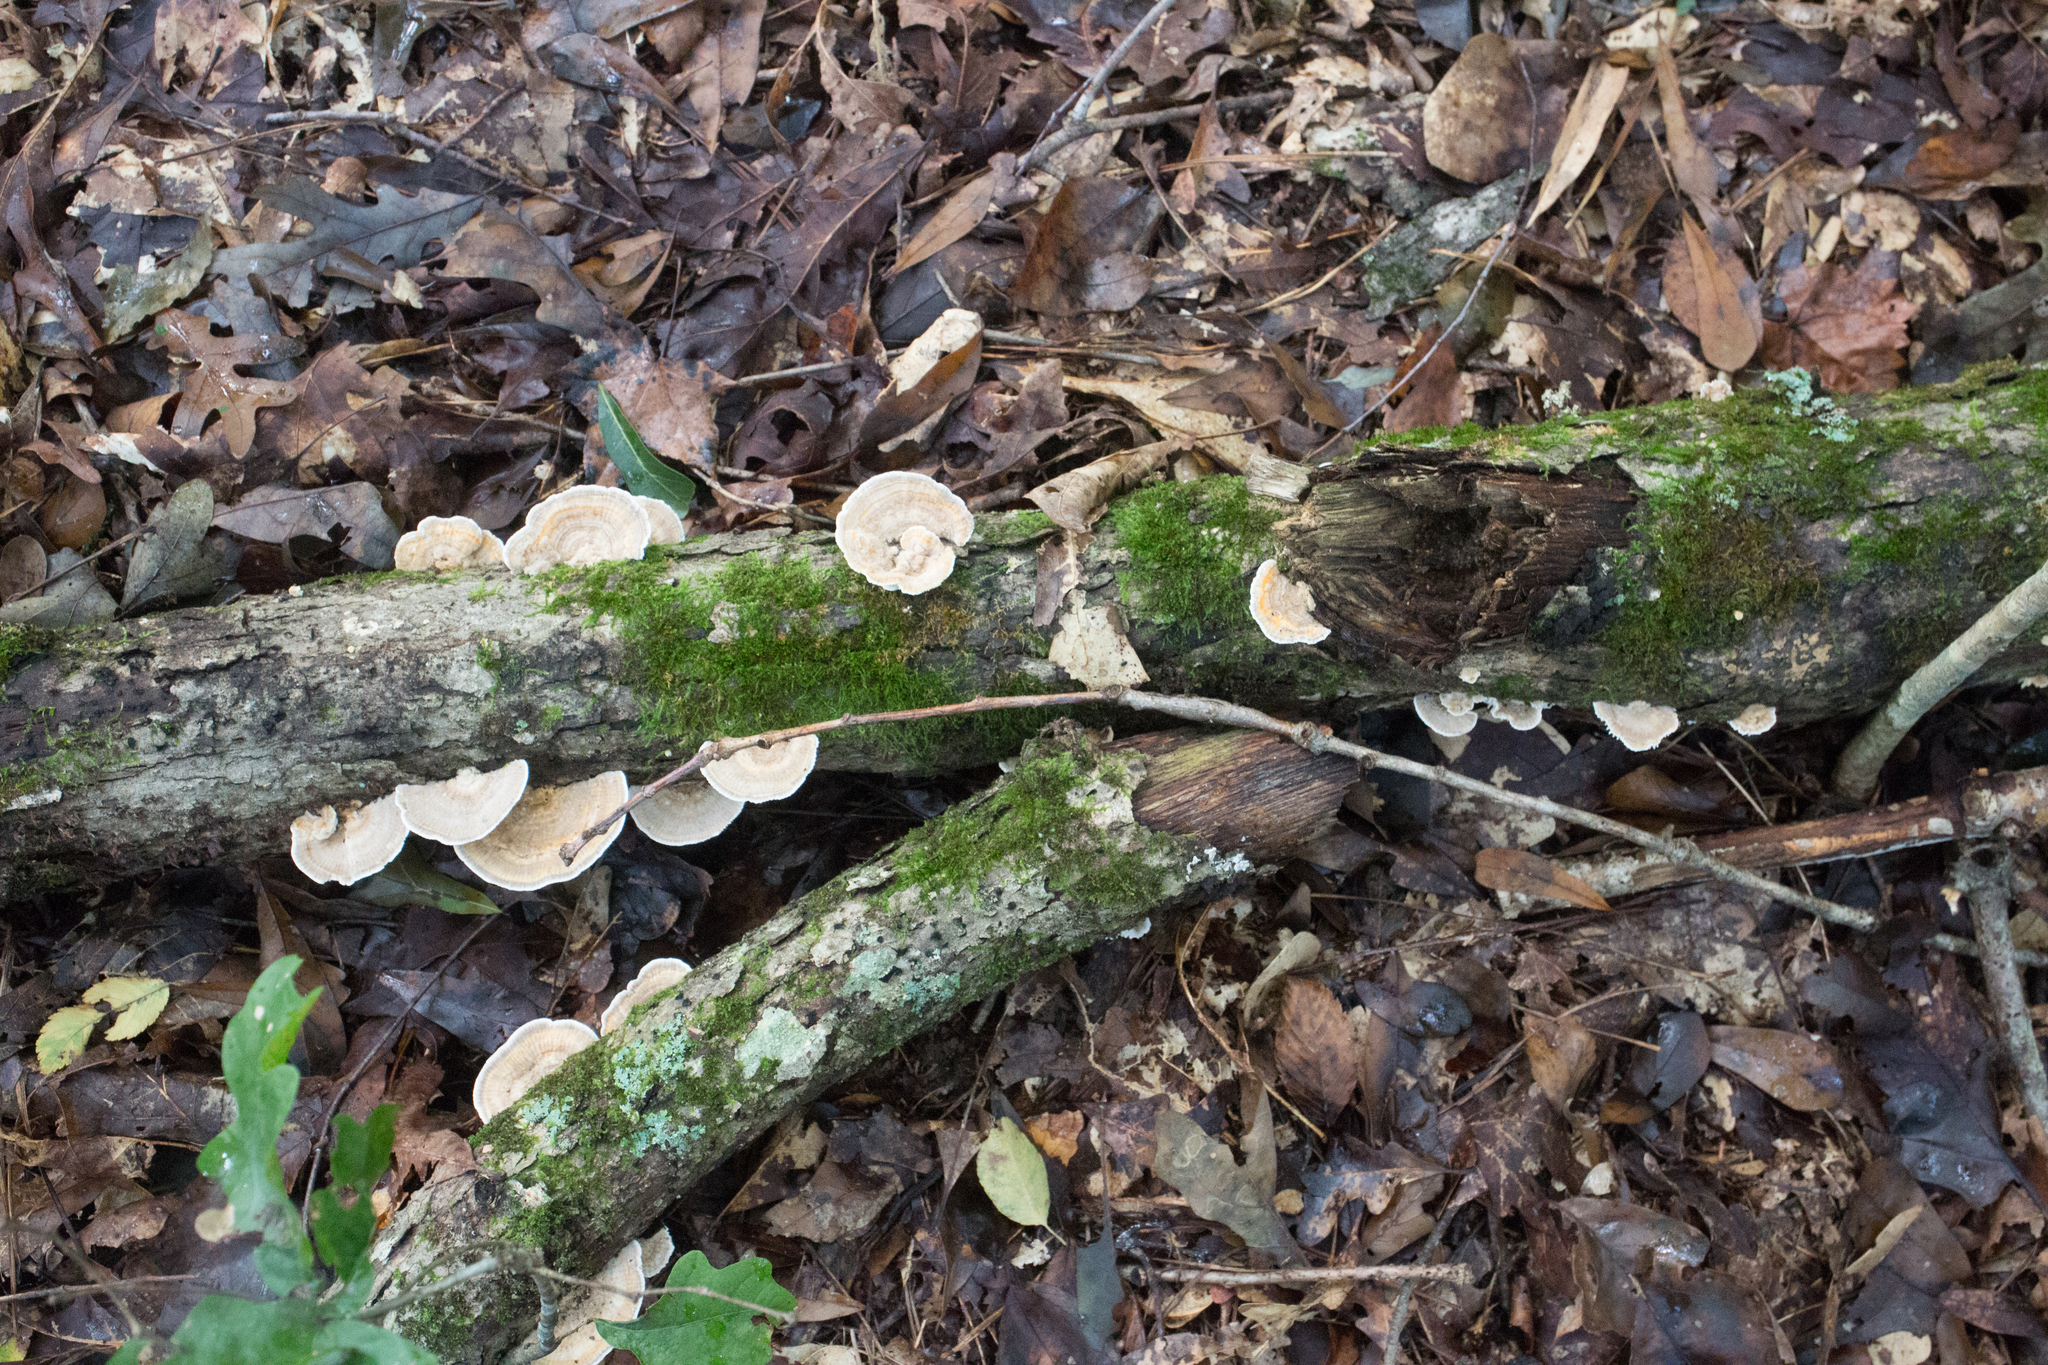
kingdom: Fungi
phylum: Basidiomycota
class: Agaricomycetes
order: Polyporales
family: Polyporaceae
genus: Lenzites
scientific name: Lenzites betulinus
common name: Birch mazegill
